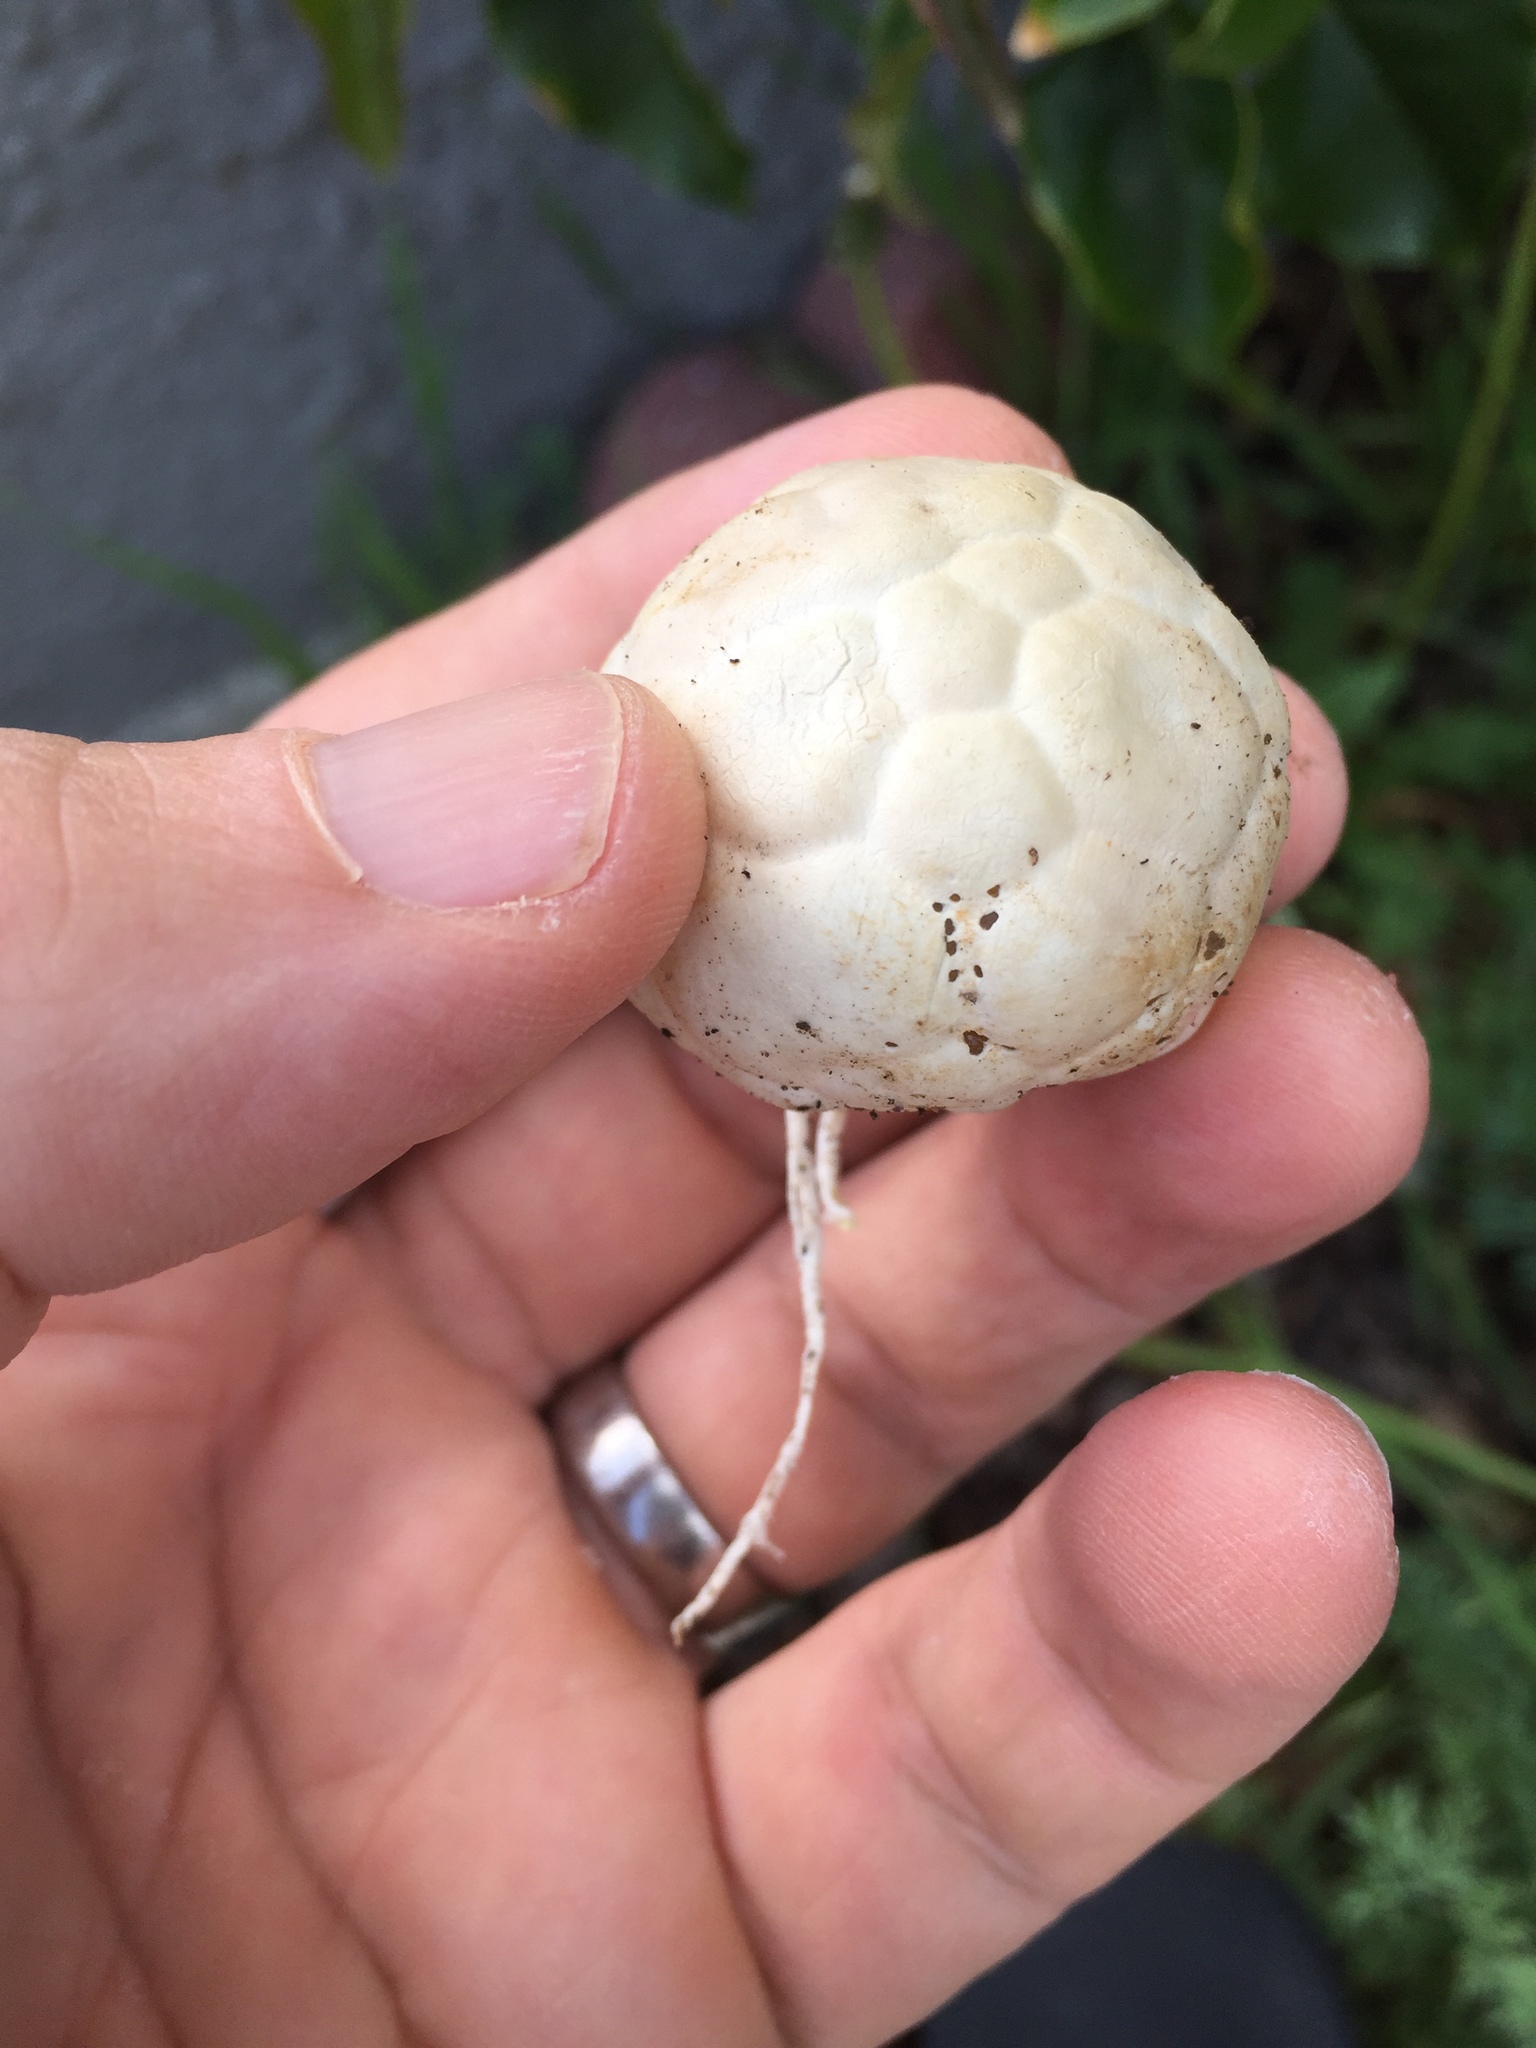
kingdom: Fungi
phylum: Basidiomycota
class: Agaricomycetes
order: Phallales
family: Phallaceae
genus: Clathrus
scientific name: Clathrus ruber
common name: Red cage
